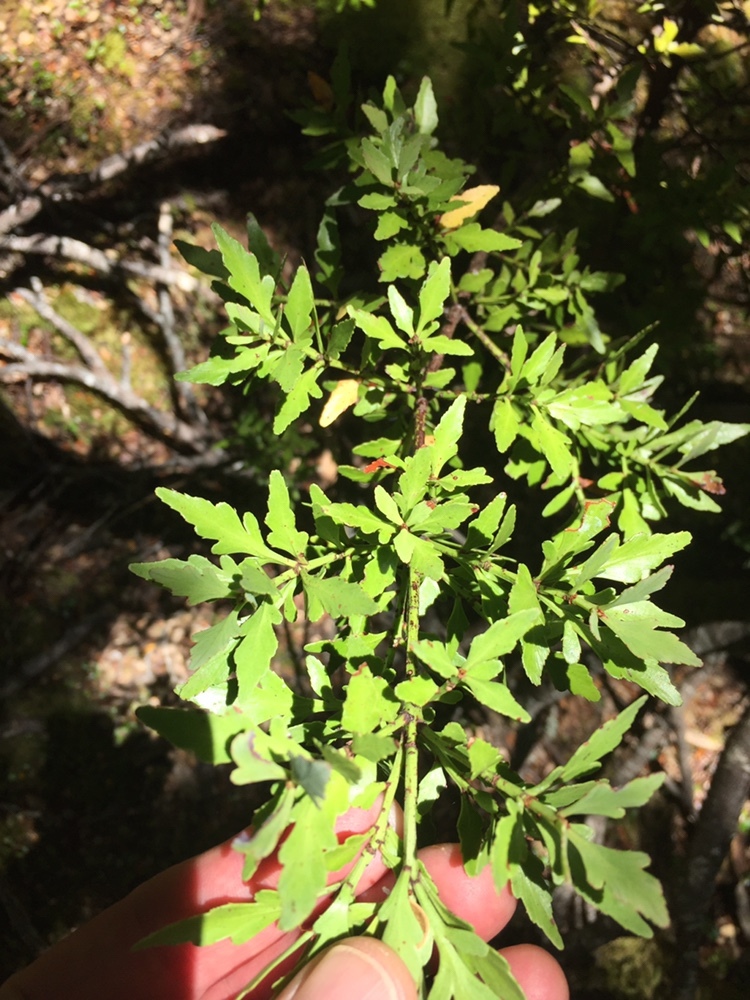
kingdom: Plantae
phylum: Tracheophyta
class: Pinopsida
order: Pinales
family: Phyllocladaceae
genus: Phyllocladus
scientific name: Phyllocladus trichomanoides
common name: Celery pine
